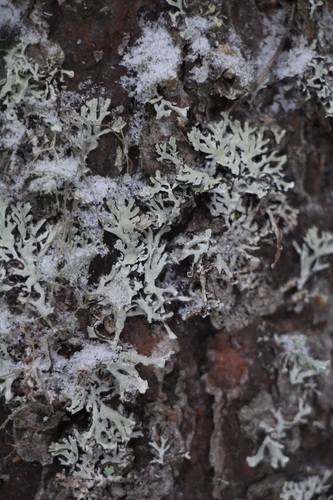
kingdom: Fungi
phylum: Ascomycota
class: Lecanoromycetes
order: Lecanorales
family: Parmeliaceae
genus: Hypogymnia
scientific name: Hypogymnia
